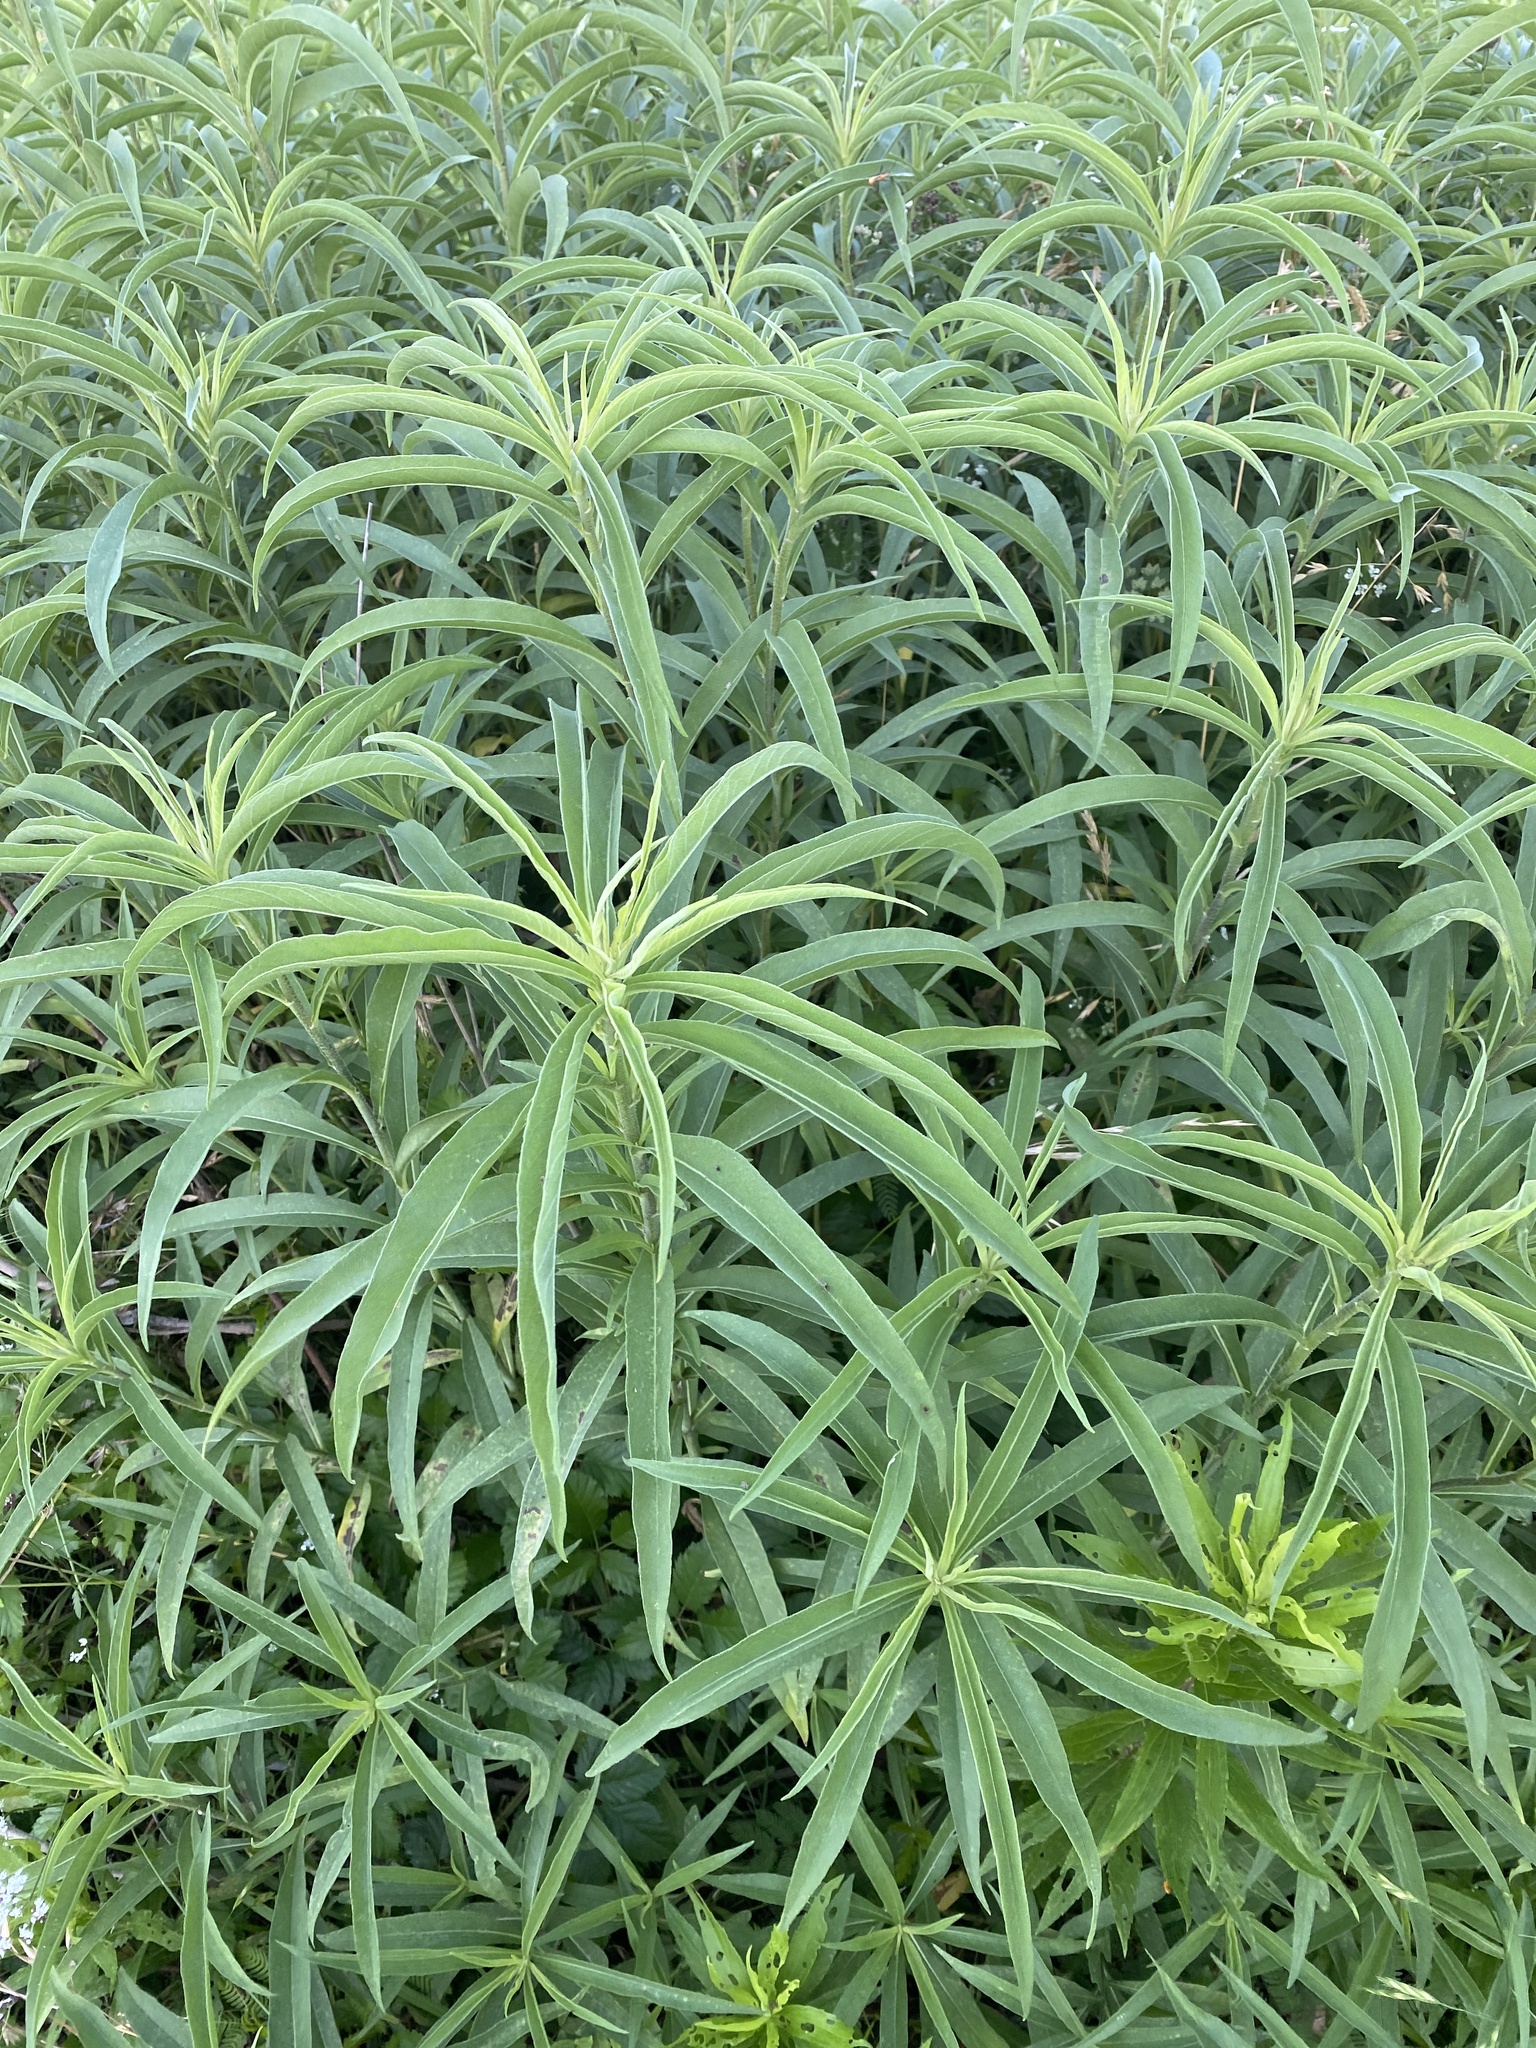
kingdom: Plantae
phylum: Tracheophyta
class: Magnoliopsida
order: Asterales
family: Asteraceae
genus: Helianthus
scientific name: Helianthus maximiliani
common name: Maximilian's sunflower
